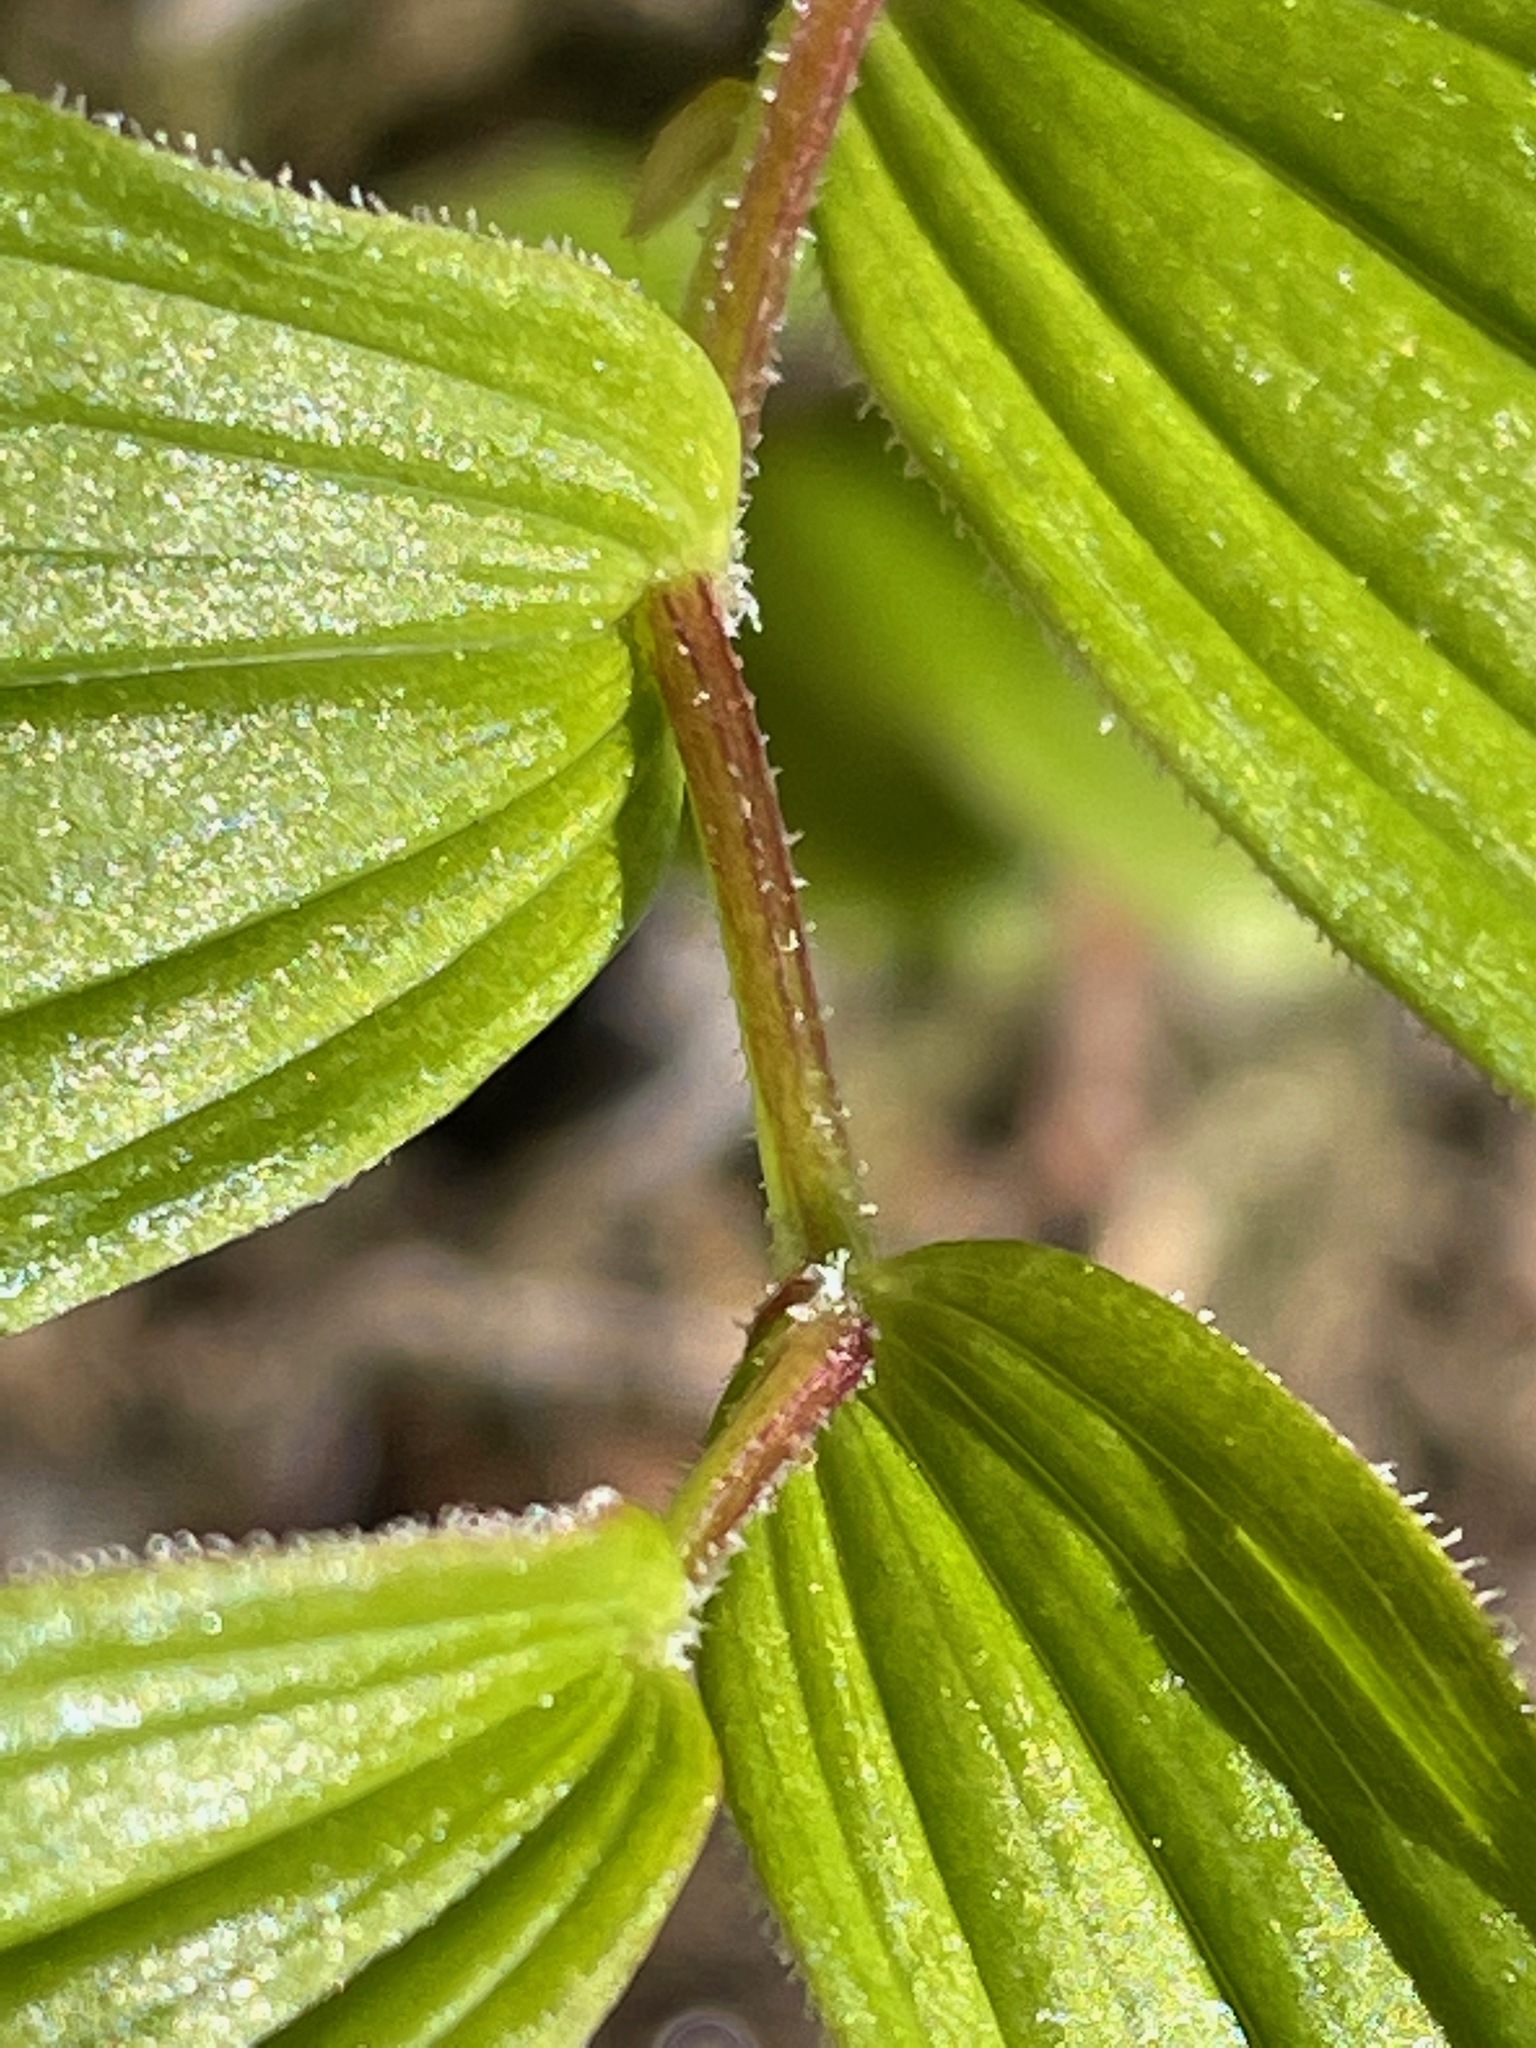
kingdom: Plantae
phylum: Tracheophyta
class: Liliopsida
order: Liliales
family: Liliaceae
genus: Streptopus
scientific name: Streptopus lanceolatus
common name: Rose mandarin
